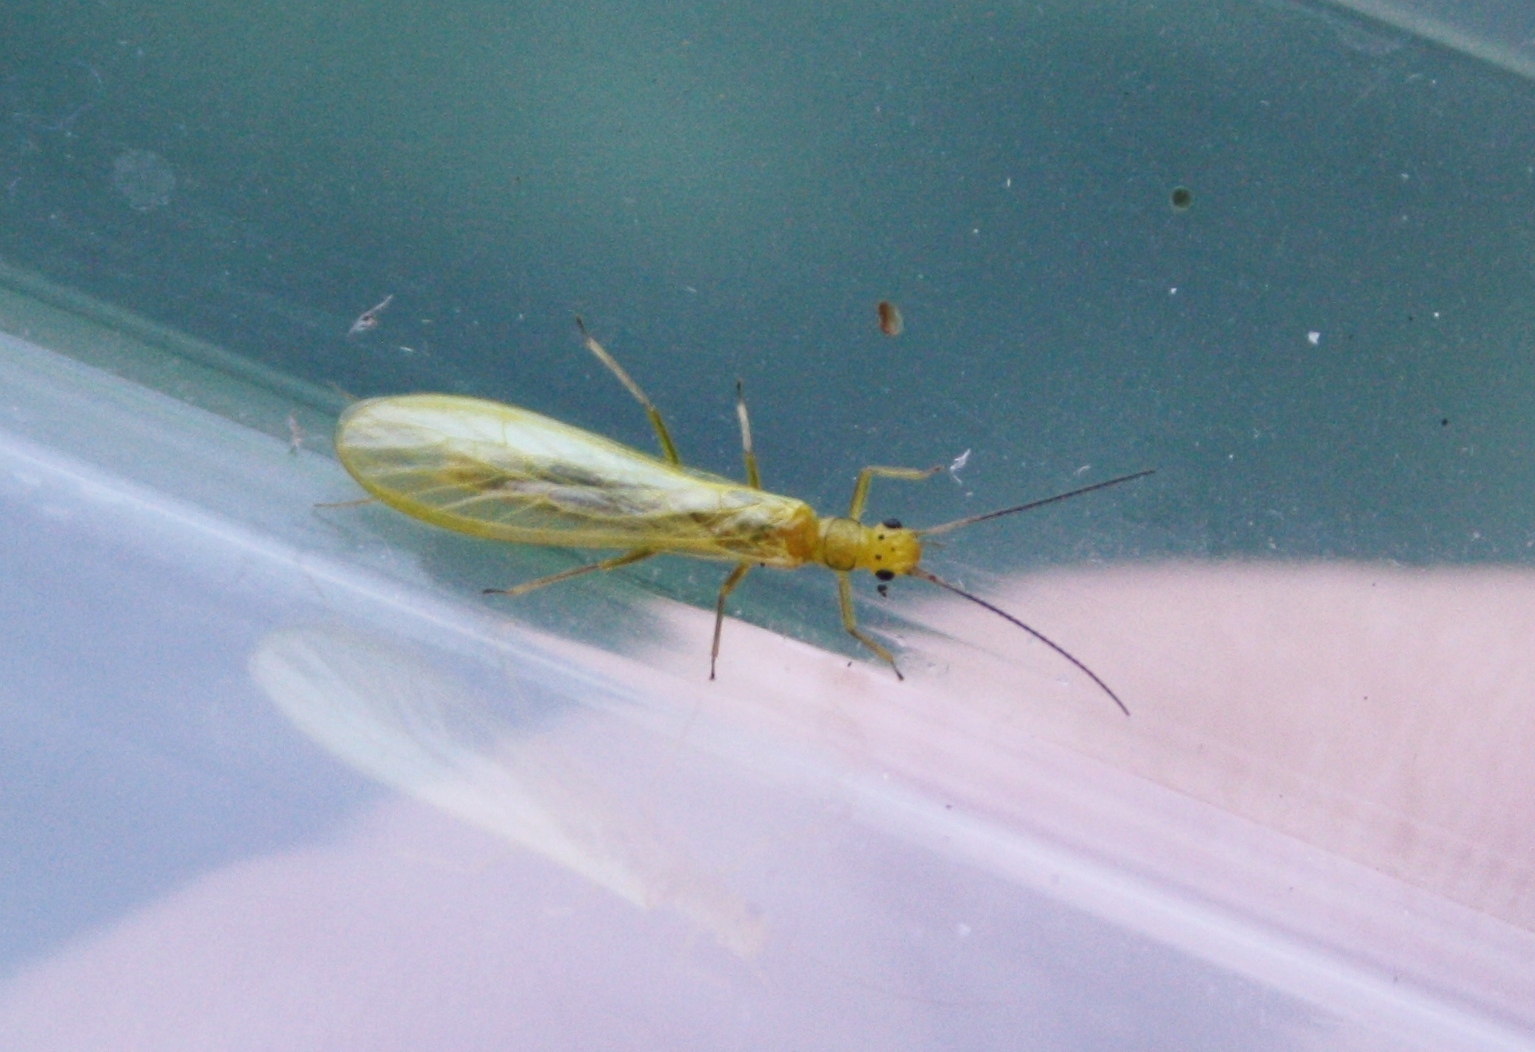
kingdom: Animalia
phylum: Arthropoda
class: Insecta
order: Plecoptera
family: Chloroperlidae
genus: Siphonoperla
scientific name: Siphonoperla torrentium
